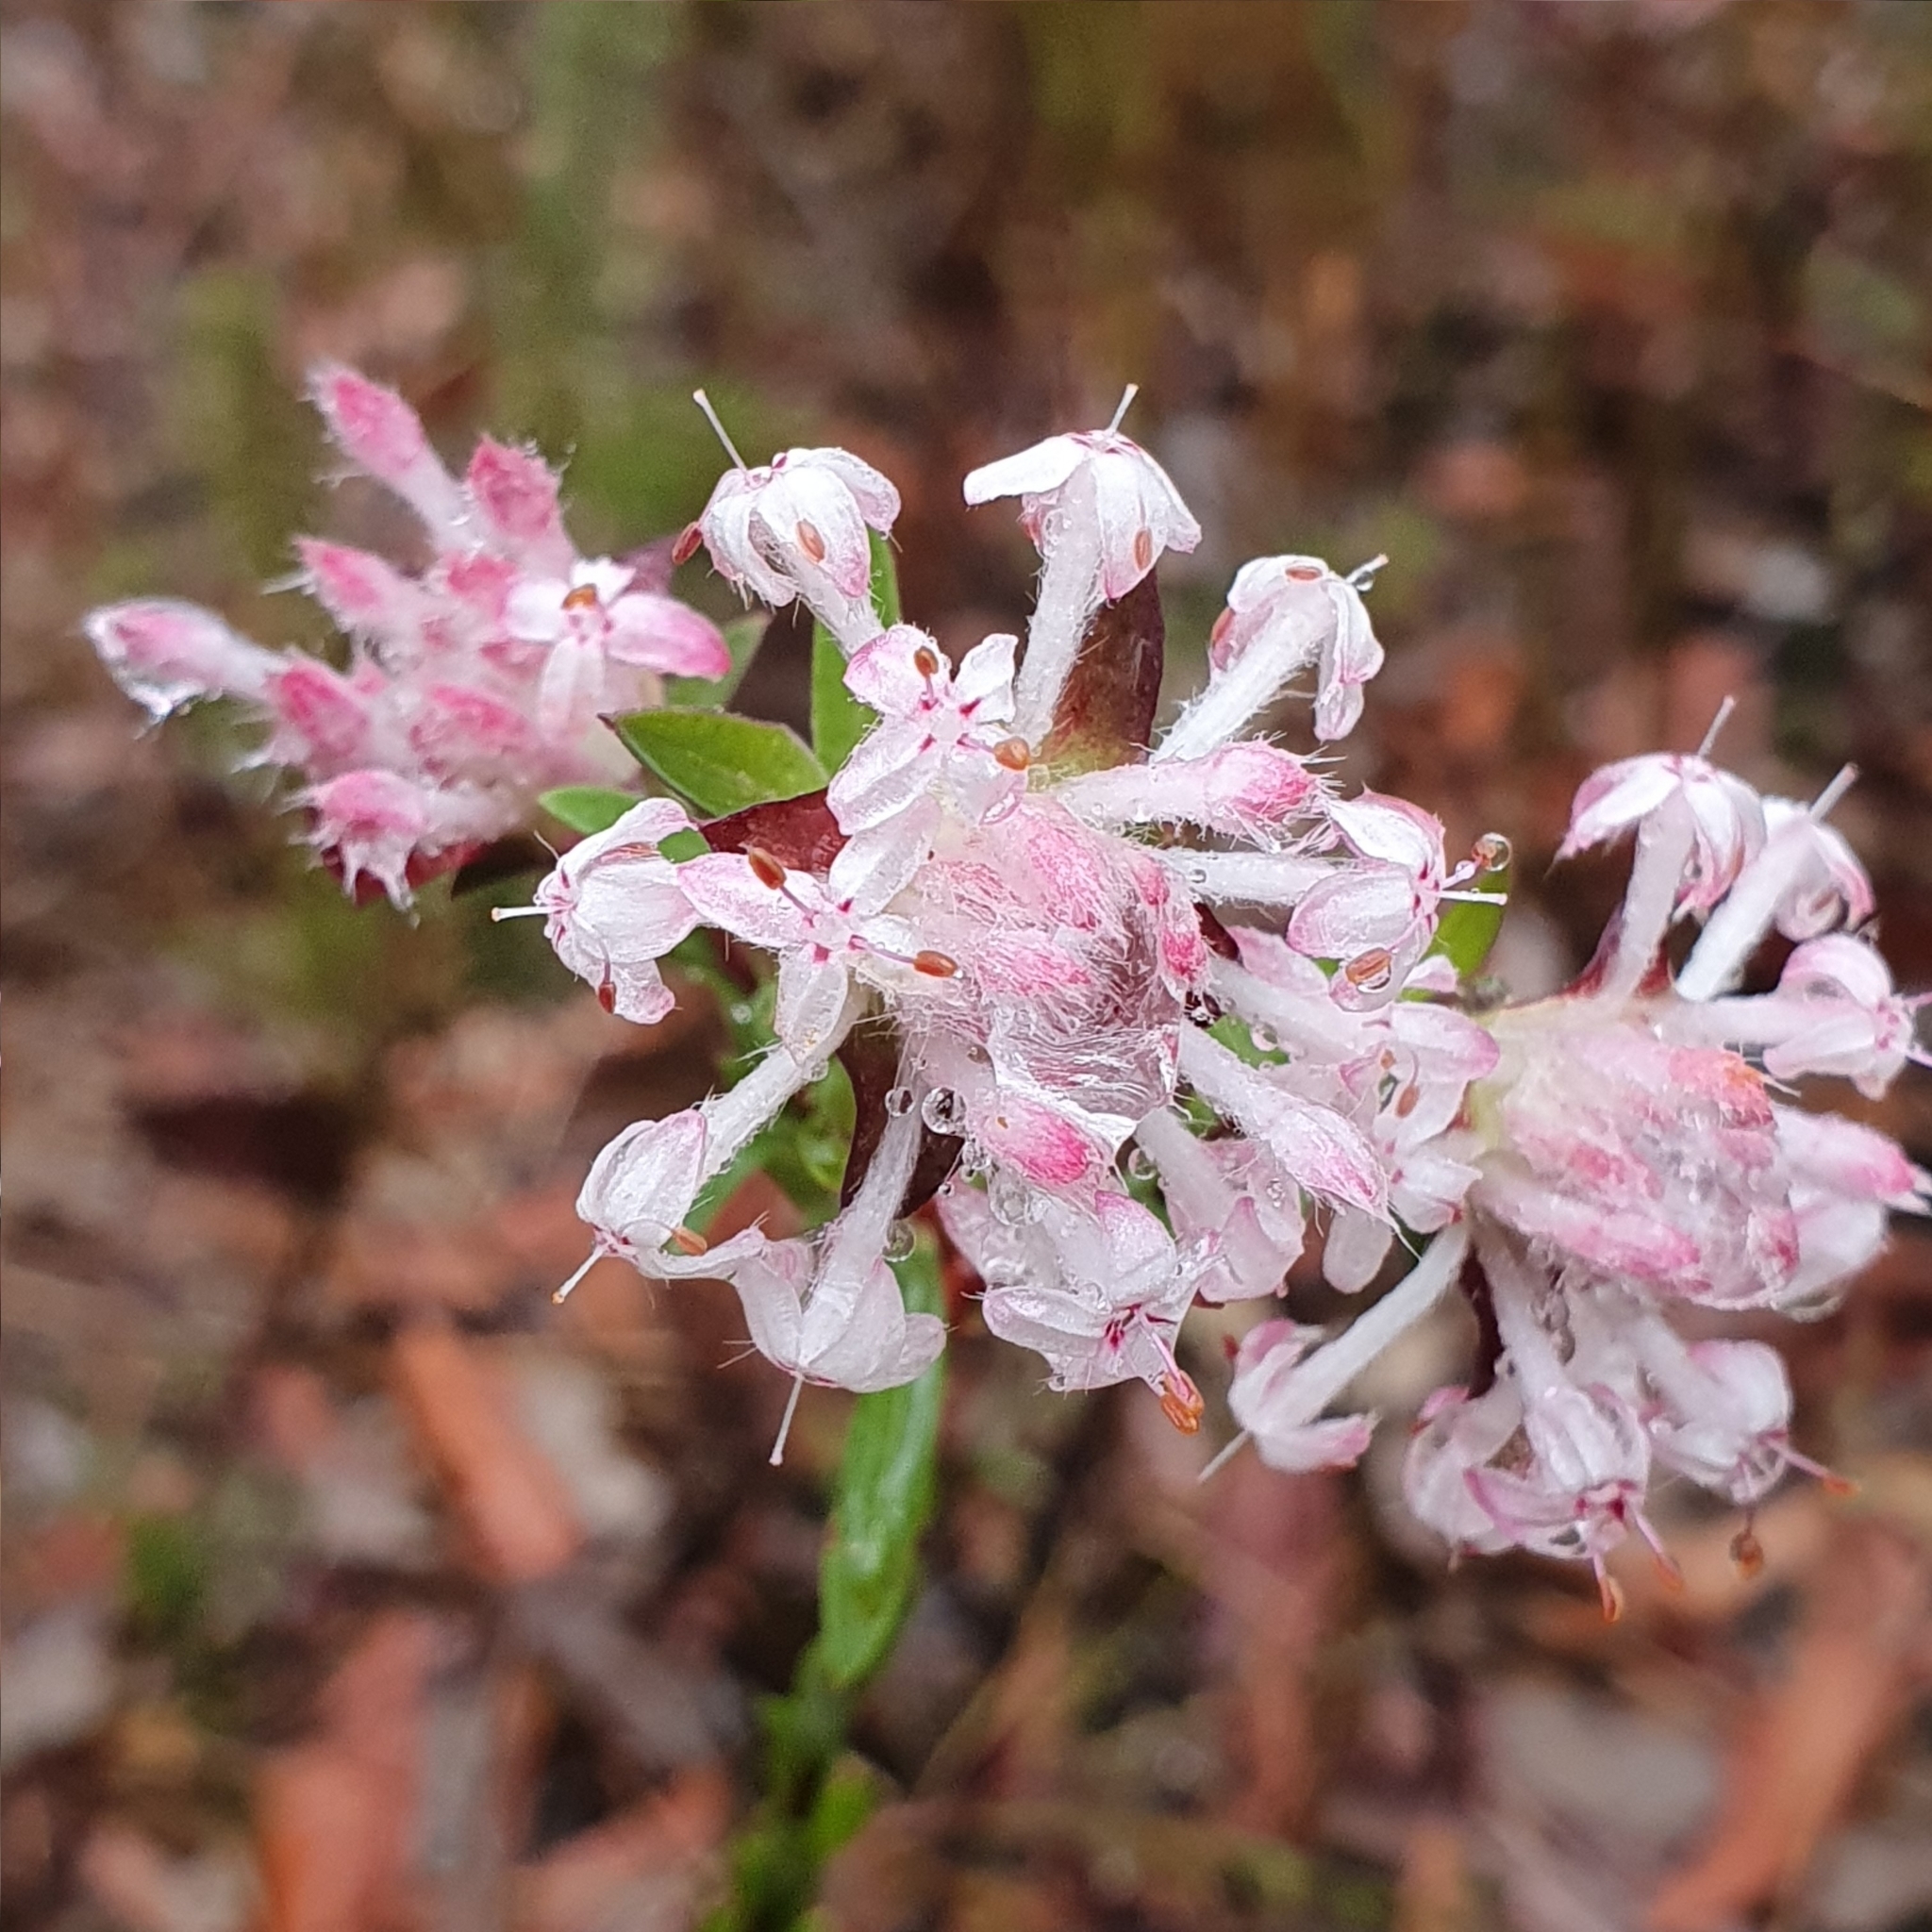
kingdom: Plantae
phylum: Tracheophyta
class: Magnoliopsida
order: Malvales
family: Thymelaeaceae
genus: Pimelea
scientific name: Pimelea linifolia
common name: Queen-of-the-bush
